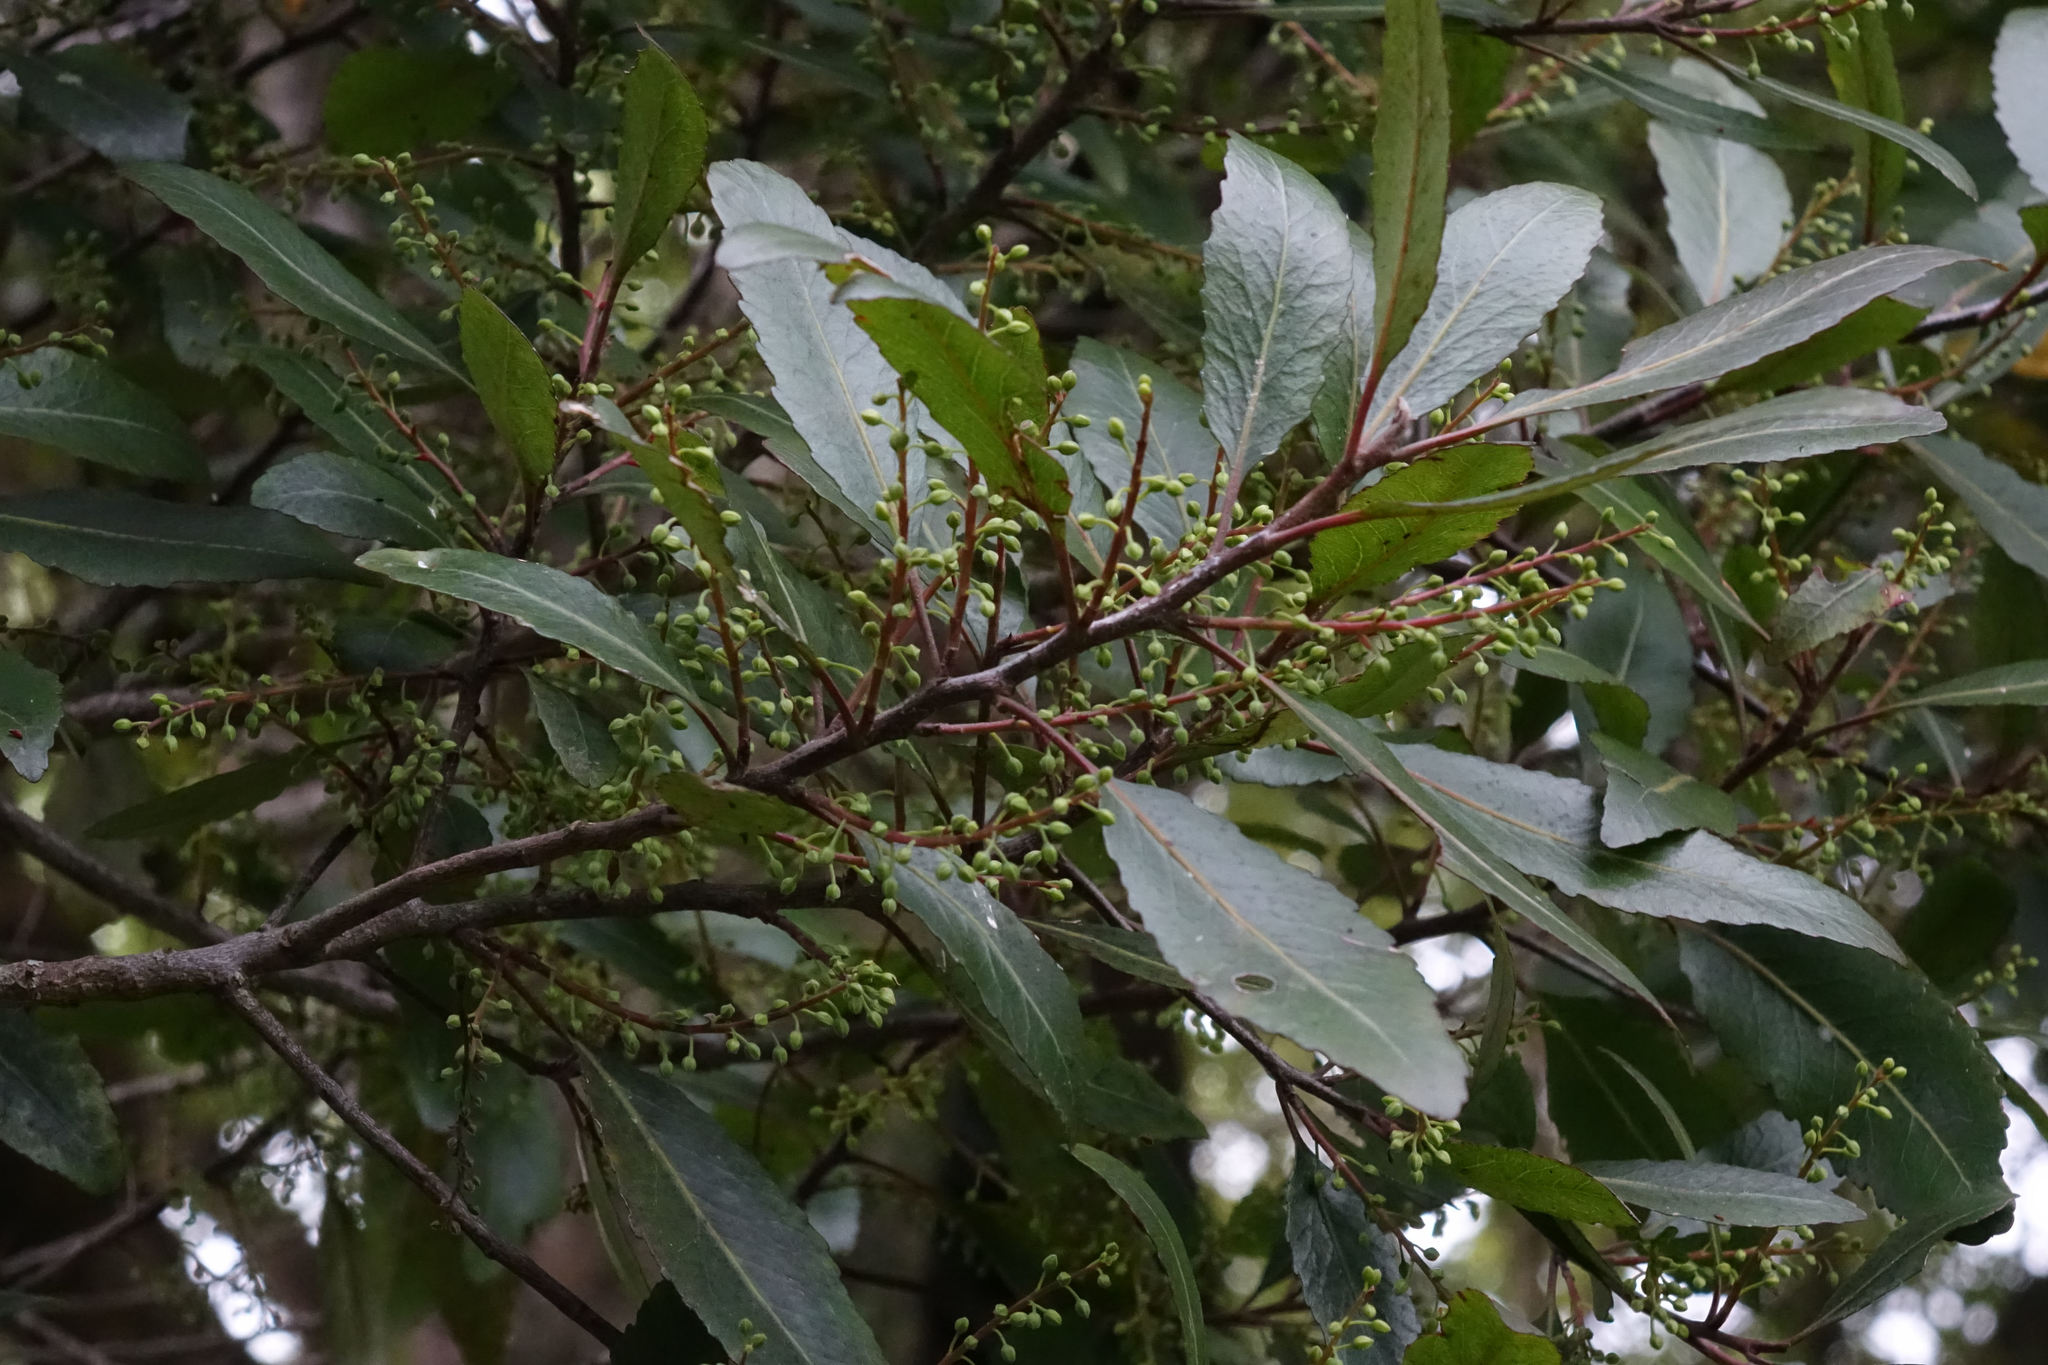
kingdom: Plantae
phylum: Tracheophyta
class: Magnoliopsida
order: Oxalidales
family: Elaeocarpaceae
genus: Elaeocarpus
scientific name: Elaeocarpus hookerianus
